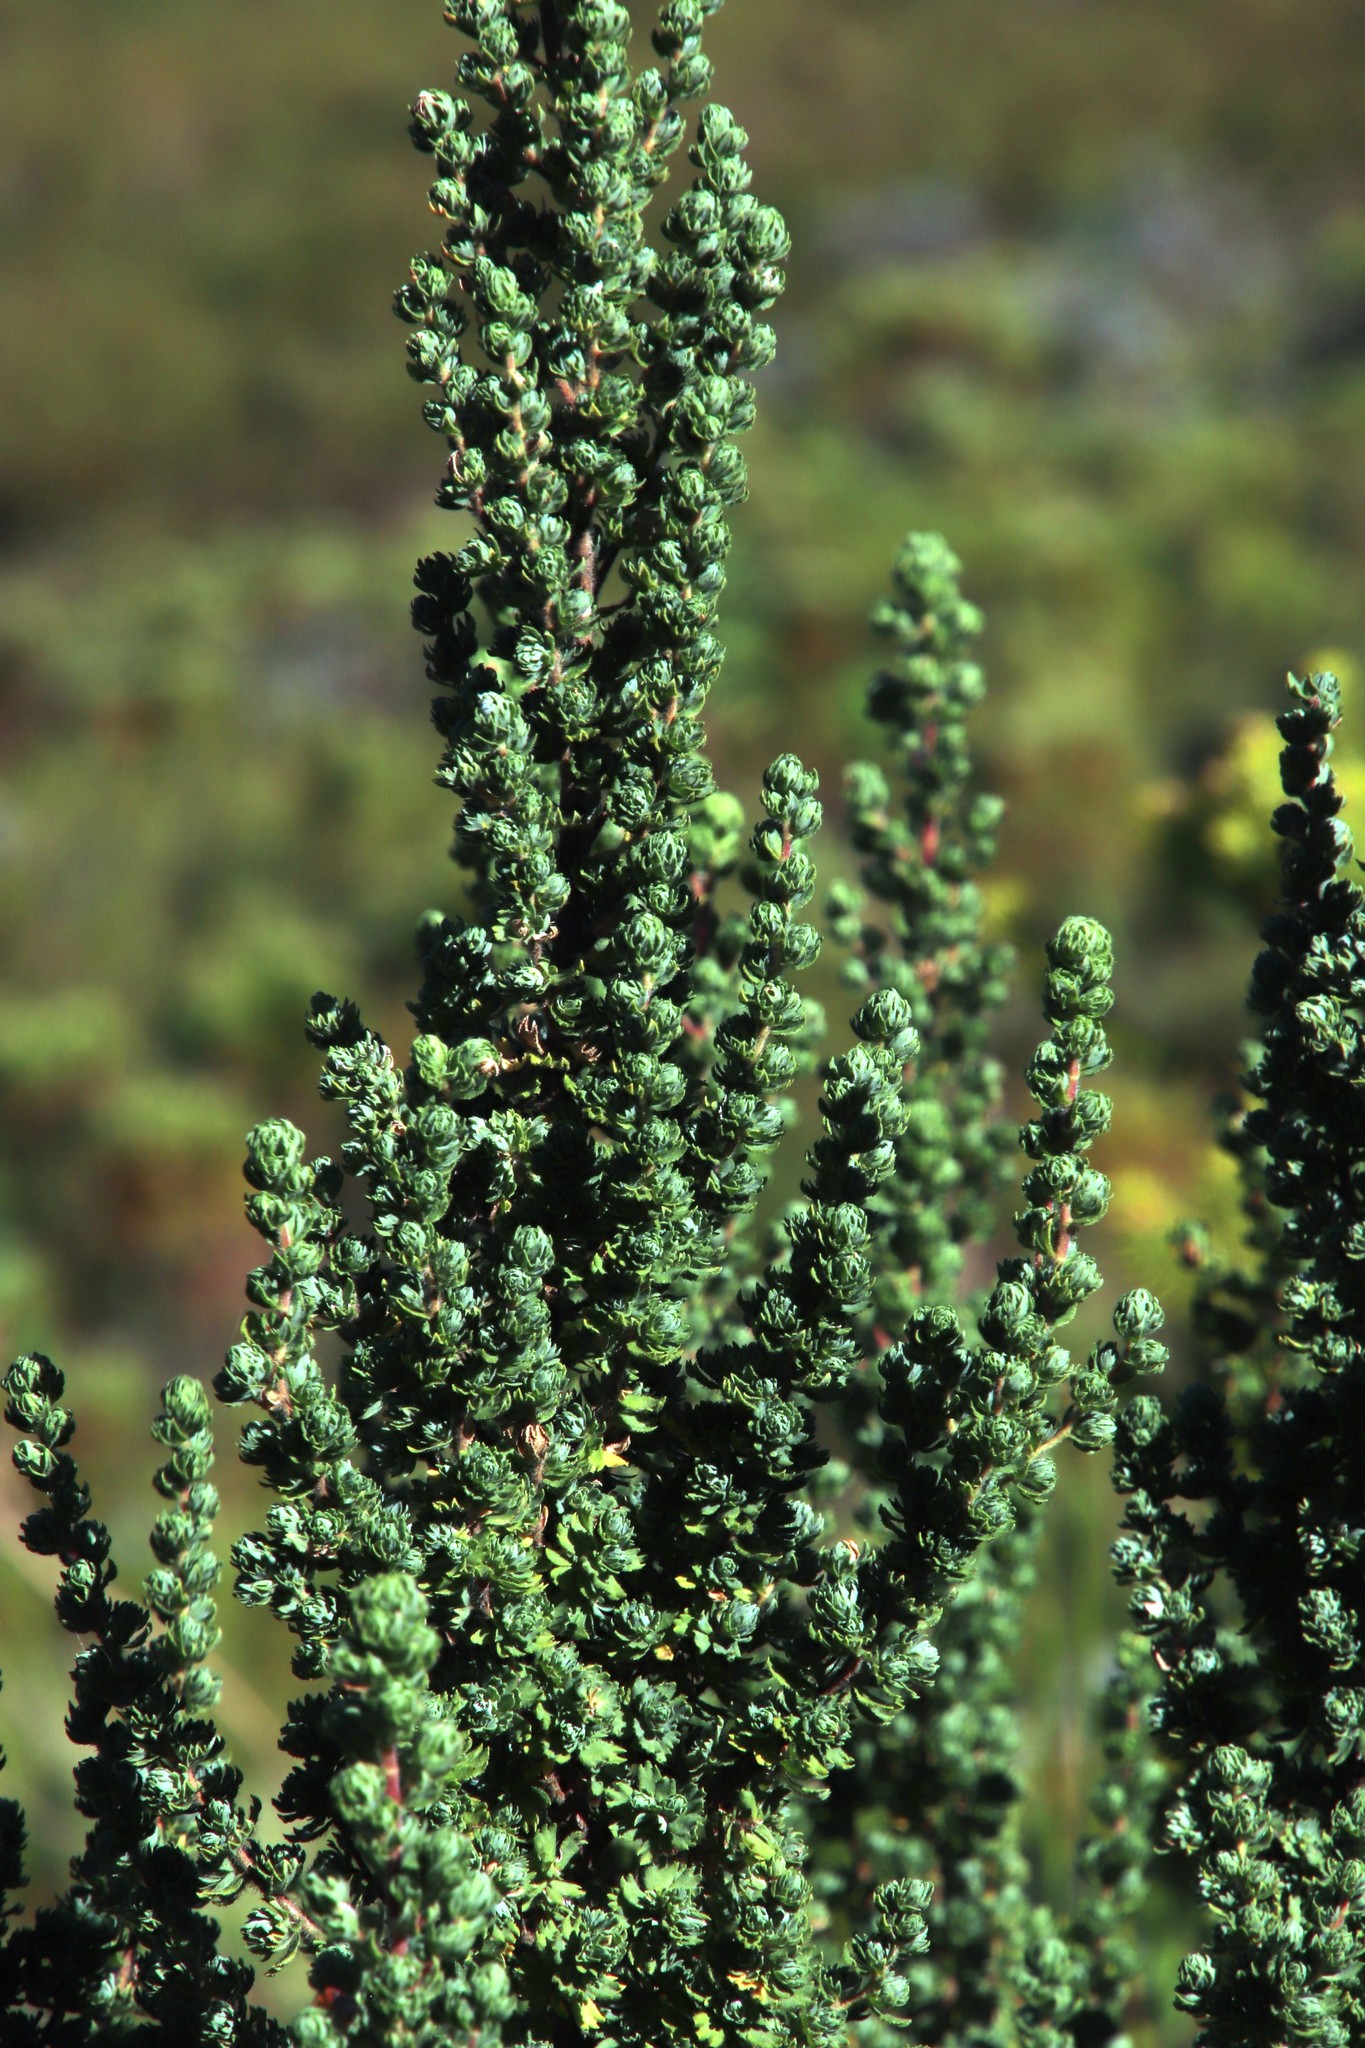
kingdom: Plantae
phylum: Tracheophyta
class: Magnoliopsida
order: Rosales
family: Rosaceae
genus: Cliffortia
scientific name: Cliffortia polygonifolia
